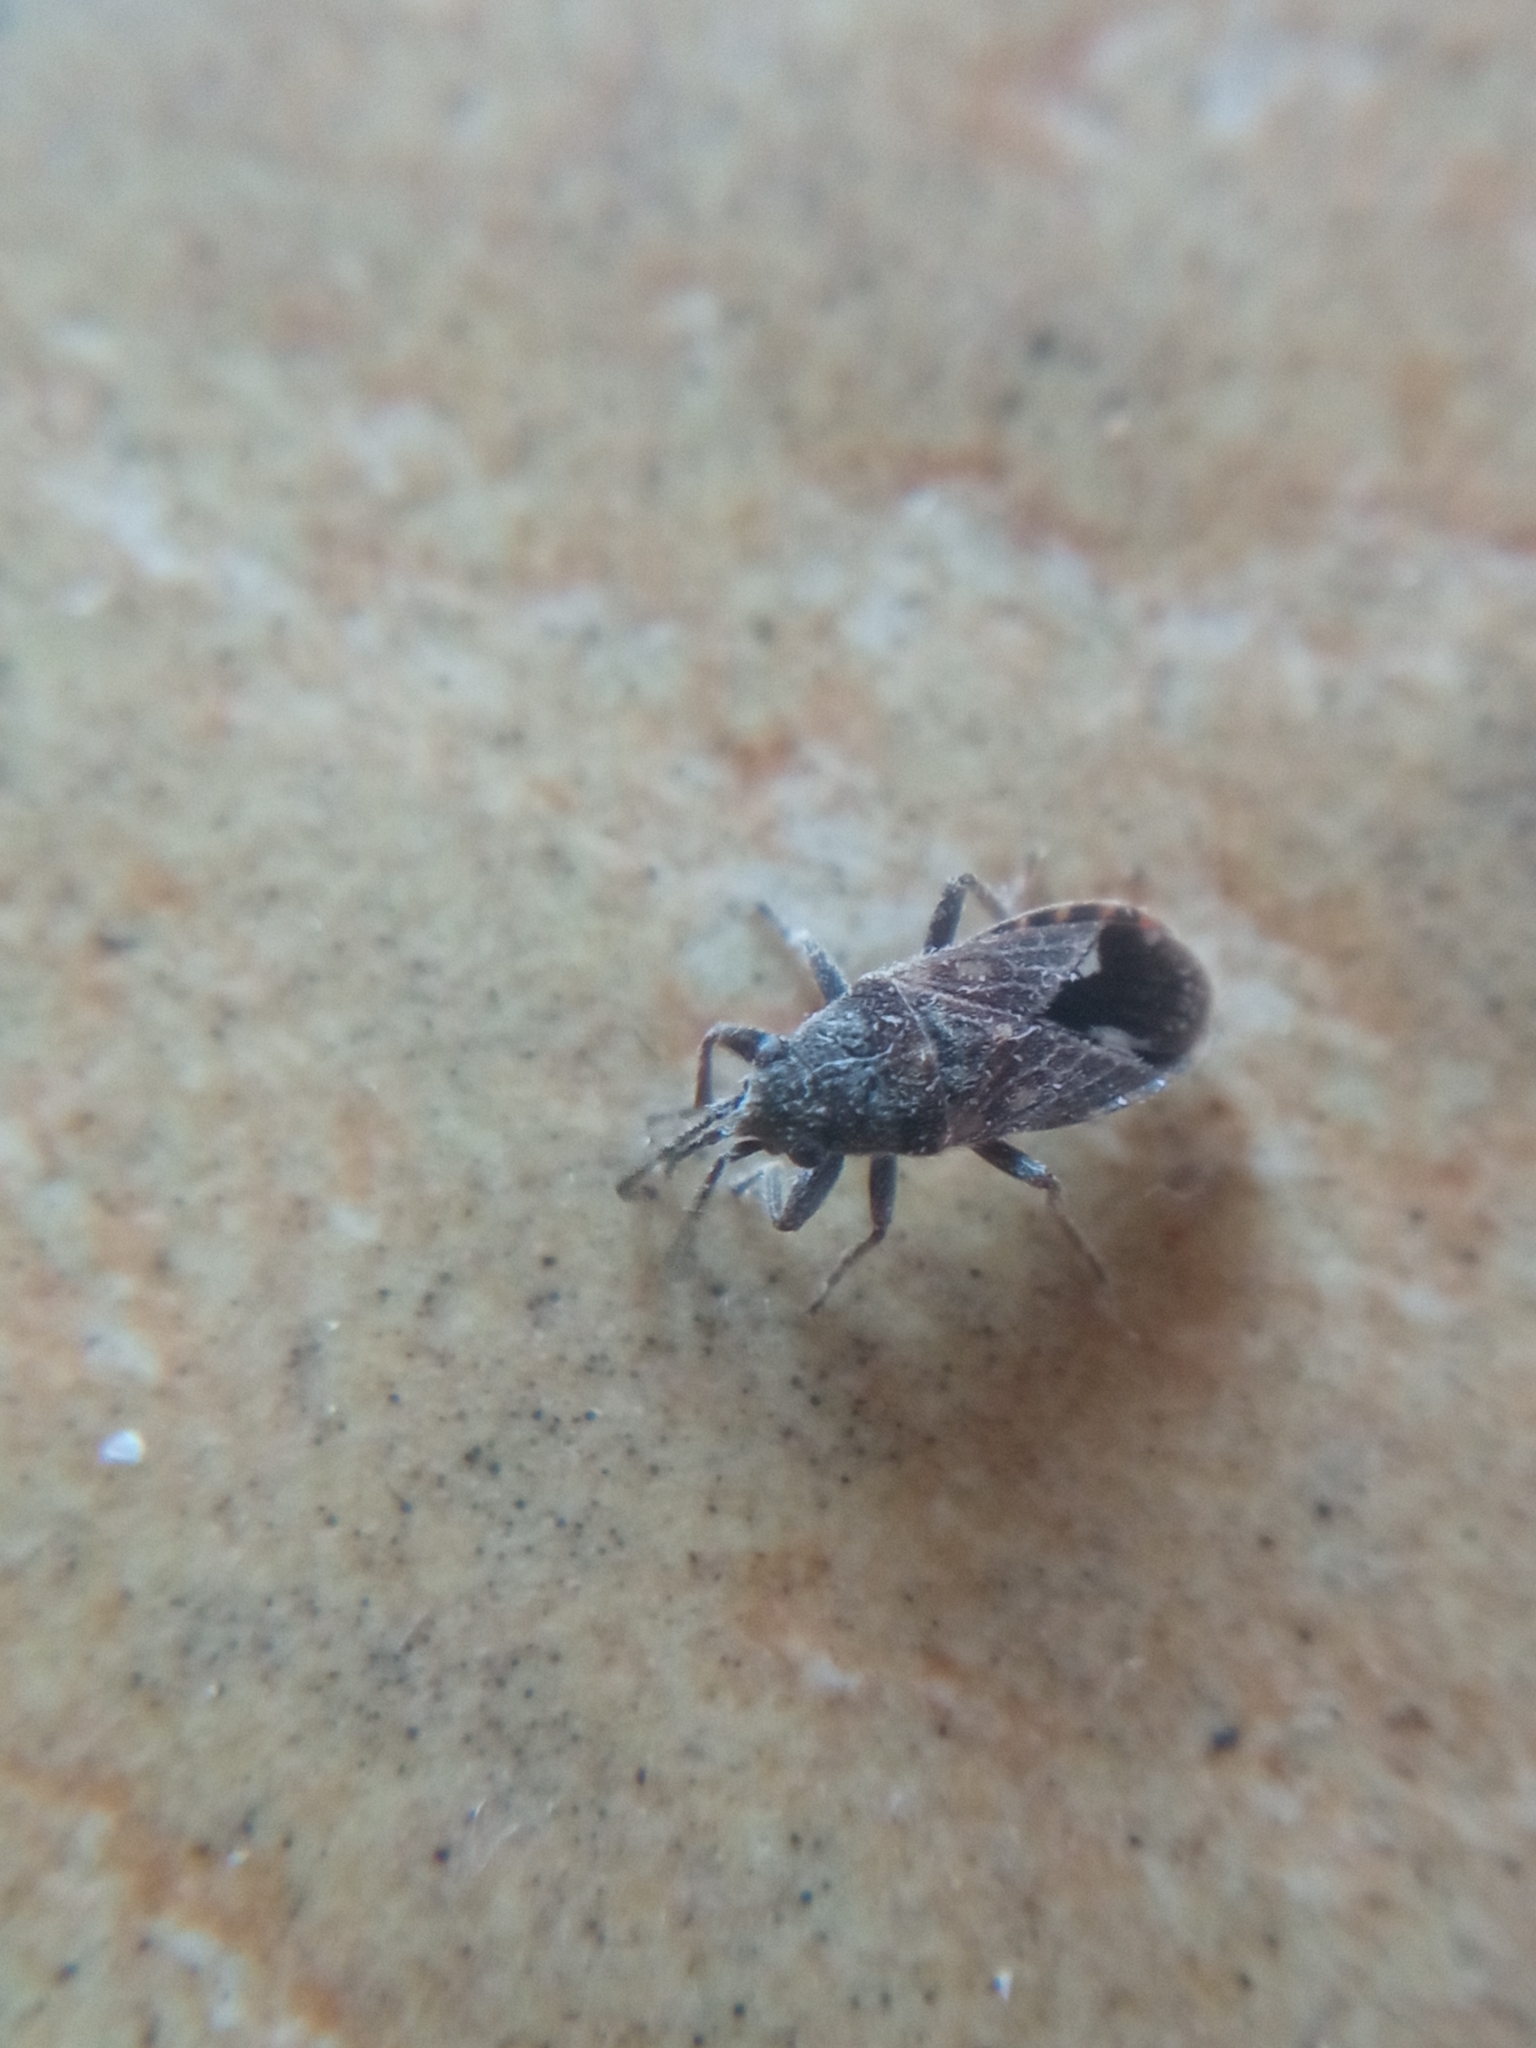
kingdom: Animalia
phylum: Arthropoda
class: Insecta
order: Hemiptera
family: Lygaeidae
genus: Lygaeosoma
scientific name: Lygaeosoma sardeum
